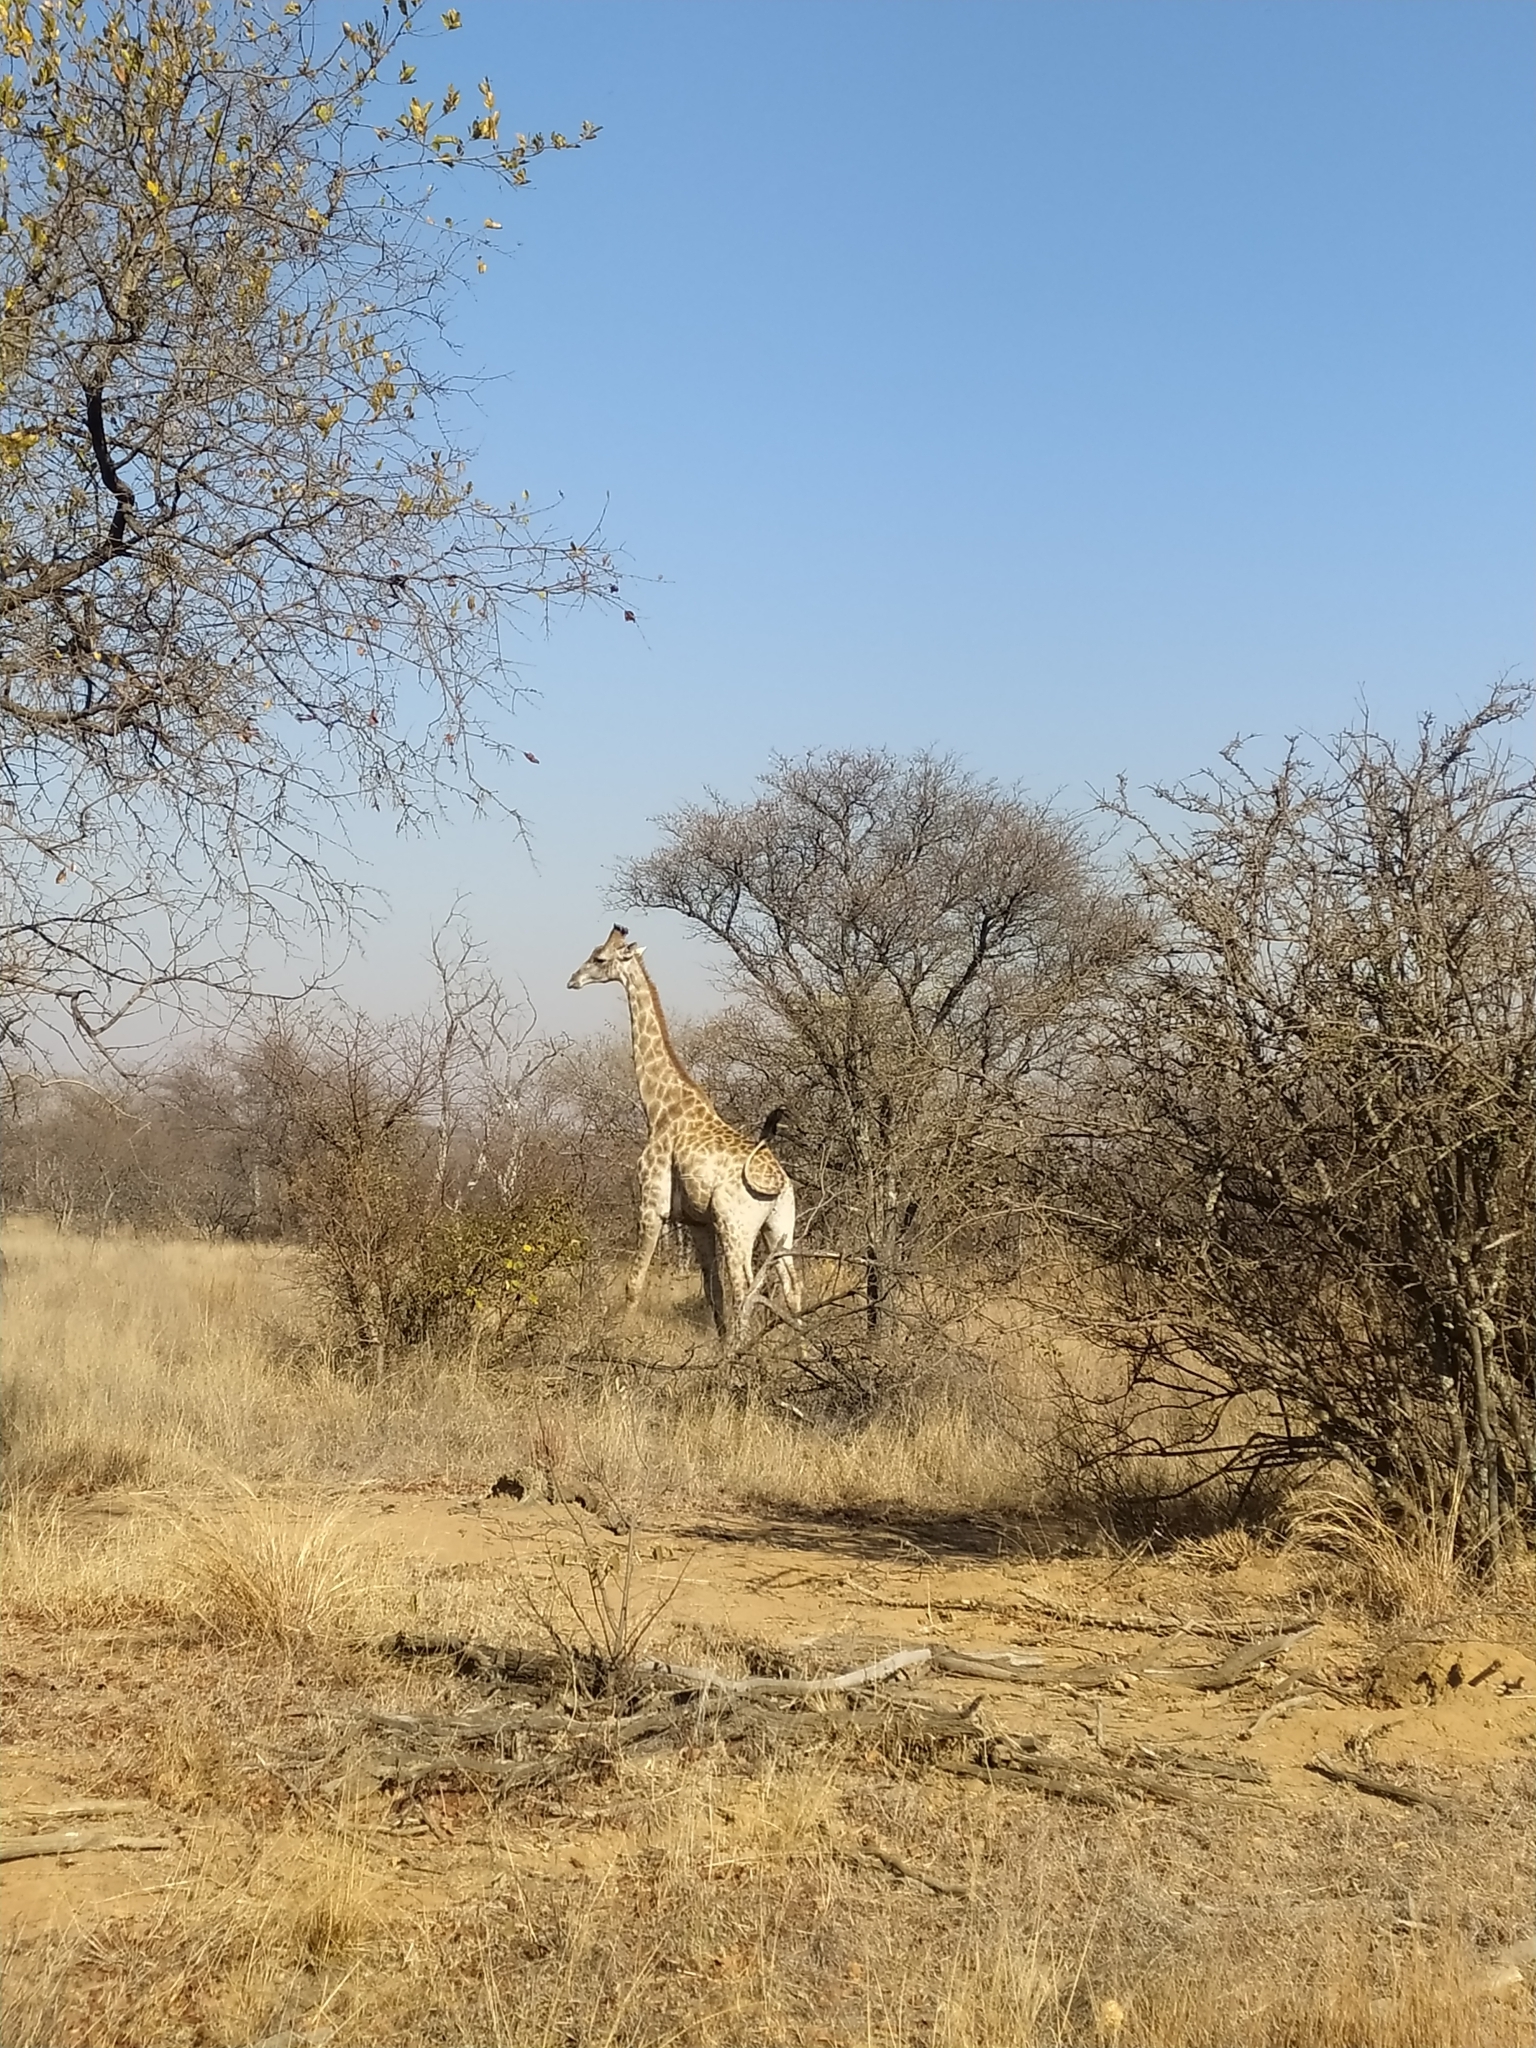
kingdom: Animalia
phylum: Chordata
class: Mammalia
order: Artiodactyla
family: Giraffidae
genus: Giraffa
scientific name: Giraffa giraffa
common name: Southern giraffe
